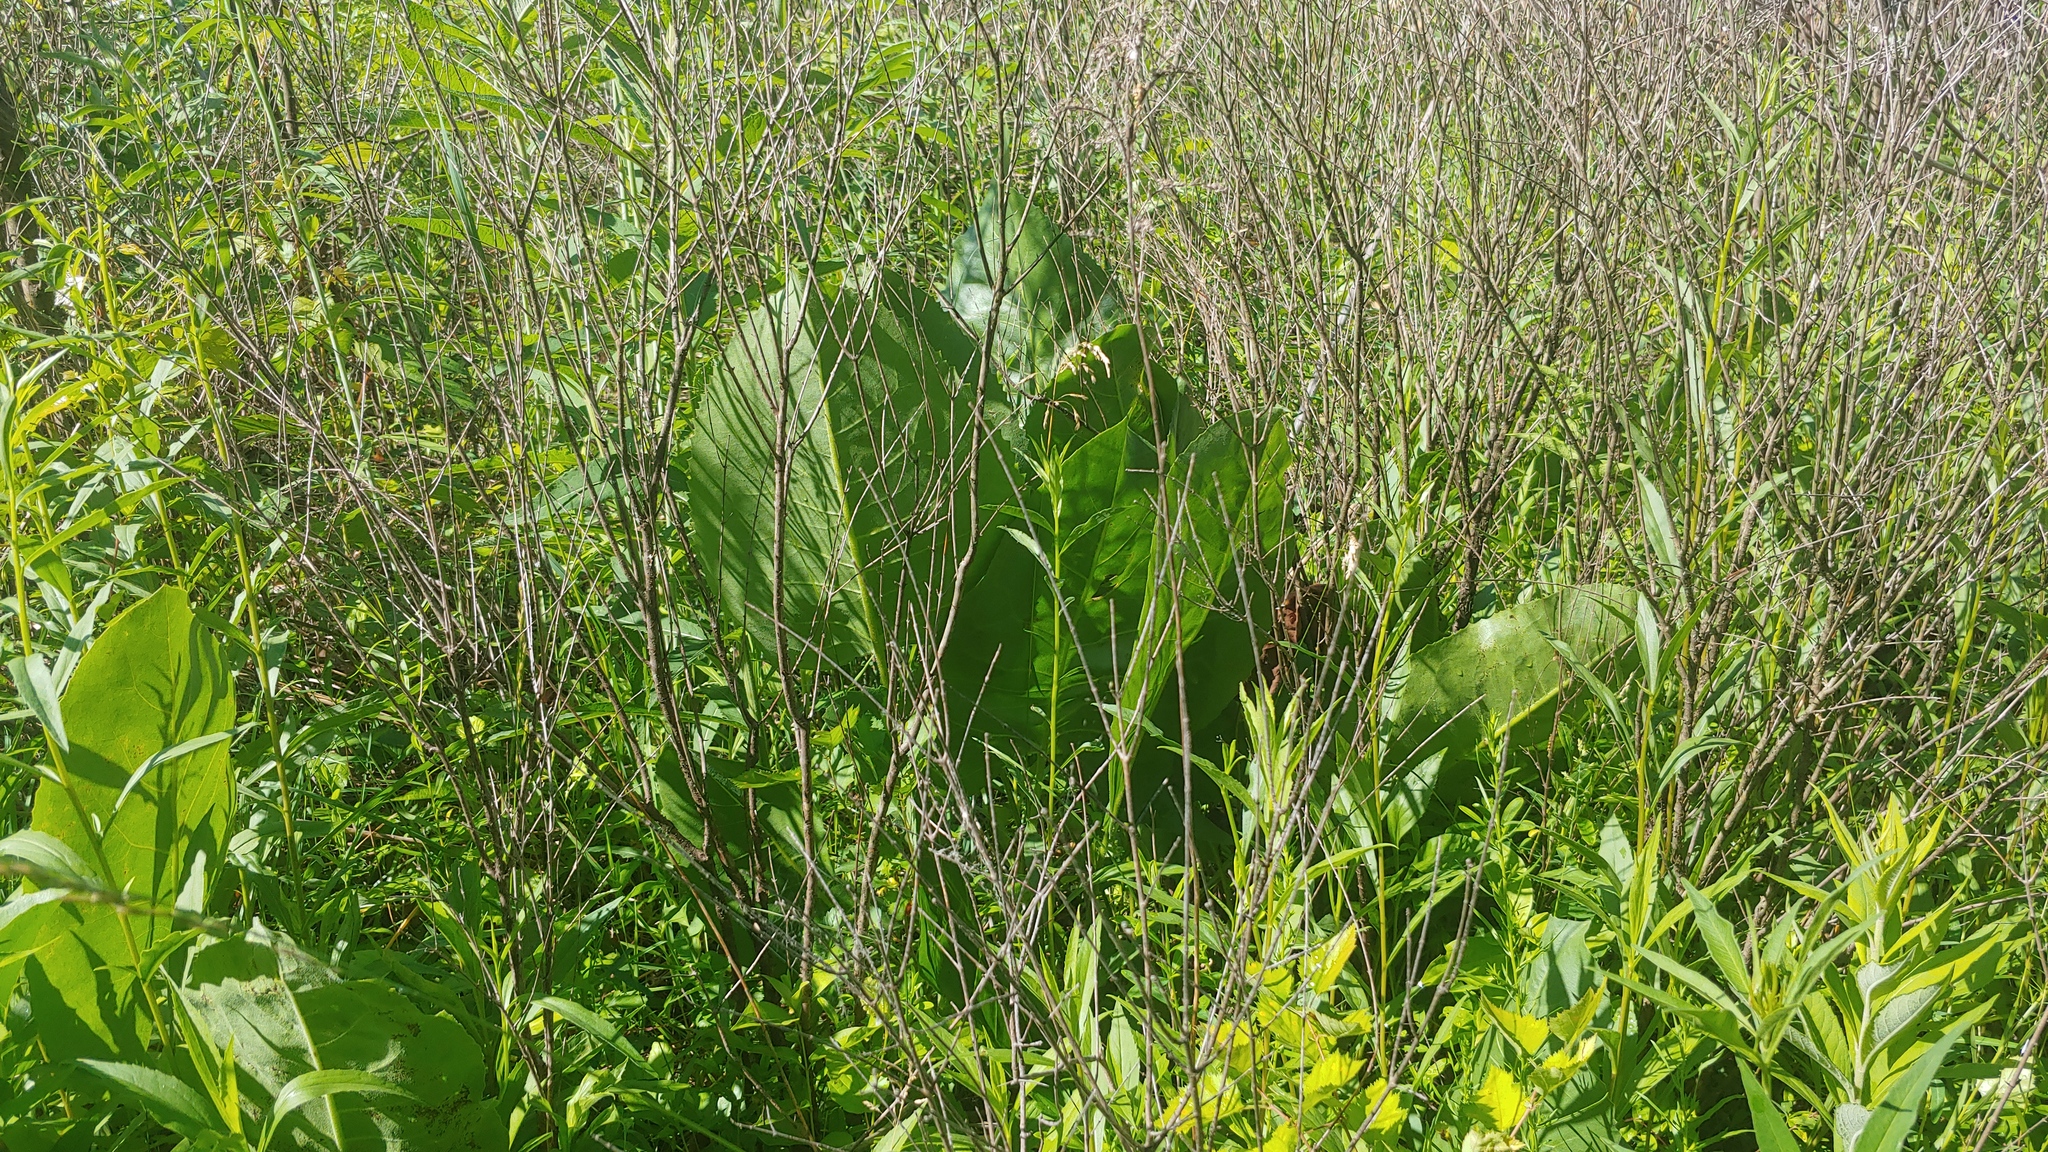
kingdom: Plantae
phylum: Tracheophyta
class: Magnoliopsida
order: Asterales
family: Asteraceae
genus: Silphium
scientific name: Silphium terebinthinaceum
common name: Basal-leaf rosinweed
